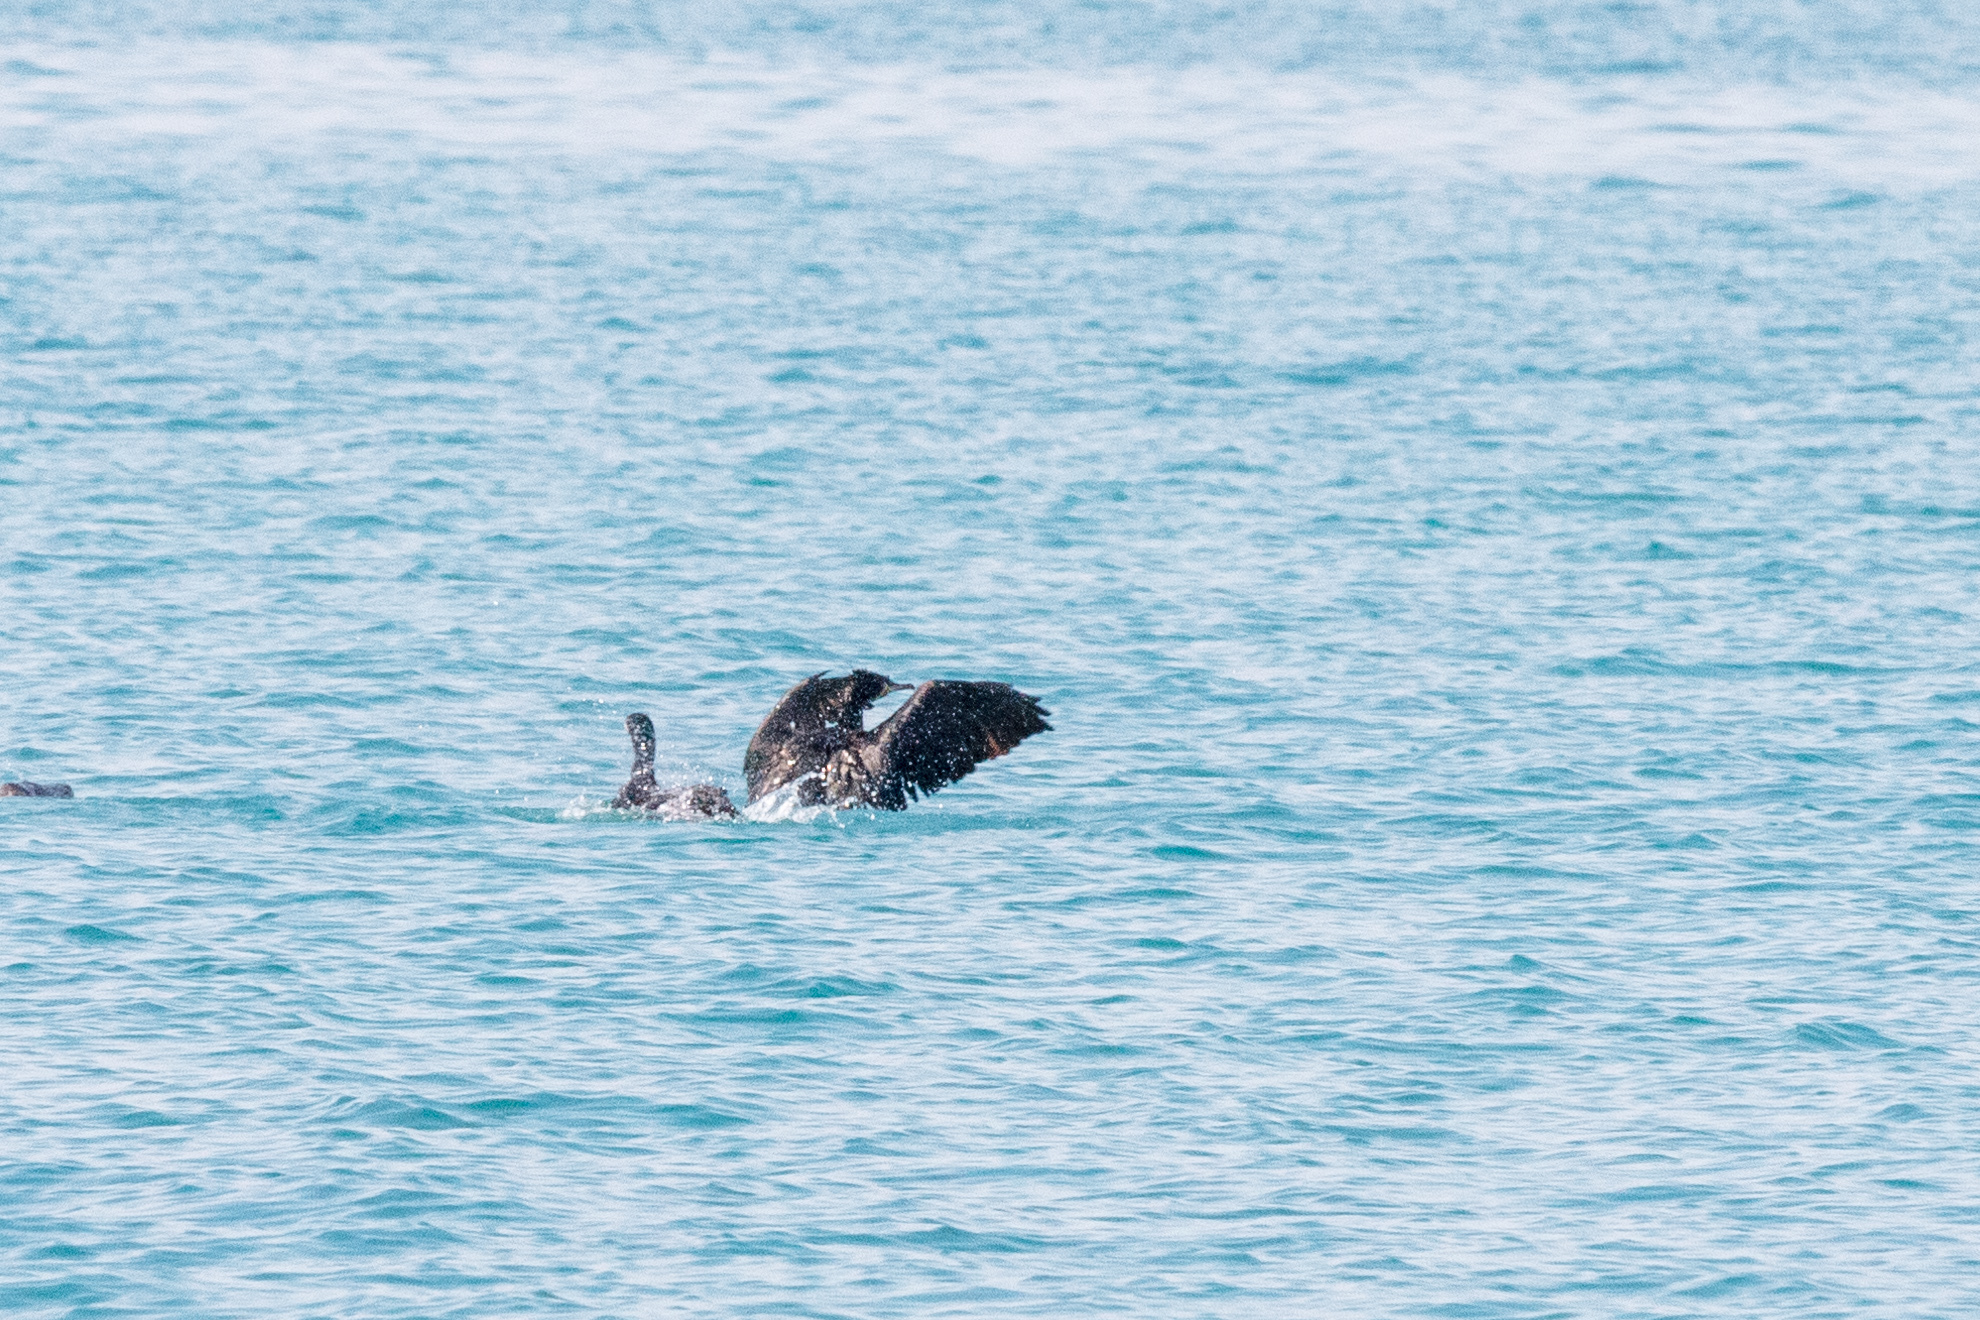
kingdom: Animalia
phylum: Chordata
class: Aves
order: Suliformes
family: Phalacrocoracidae
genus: Phalacrocorax
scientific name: Phalacrocorax carbo
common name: Great cormorant
